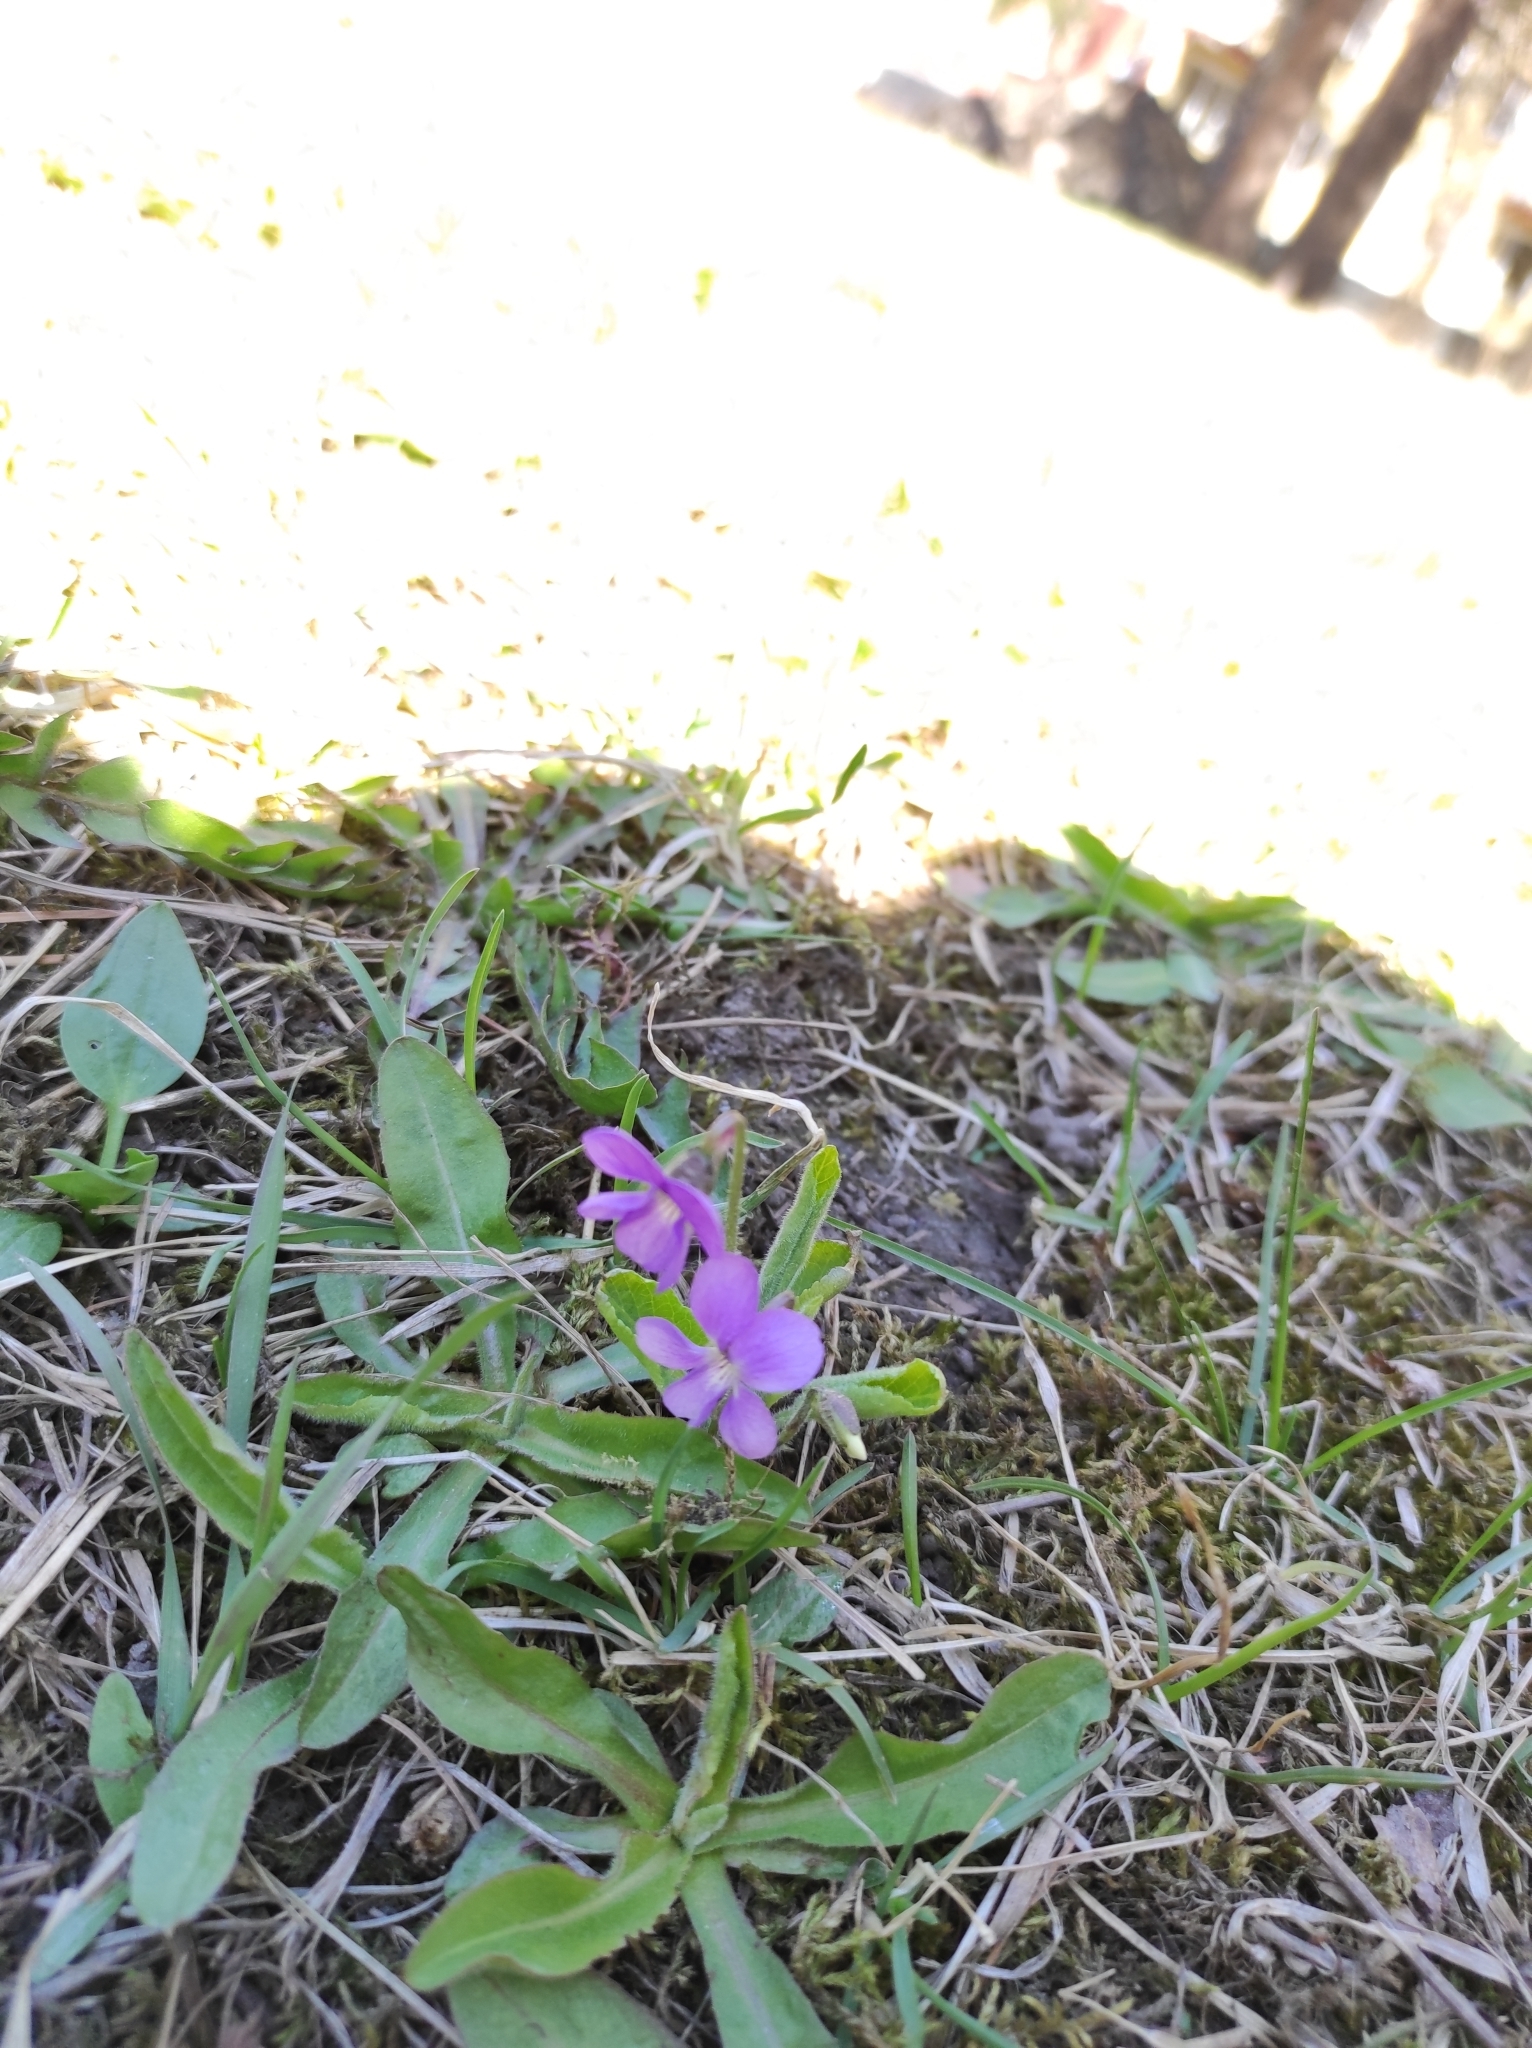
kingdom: Plantae
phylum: Tracheophyta
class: Magnoliopsida
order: Malpighiales
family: Violaceae
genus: Viola
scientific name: Viola hirta
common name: Hairy violet
